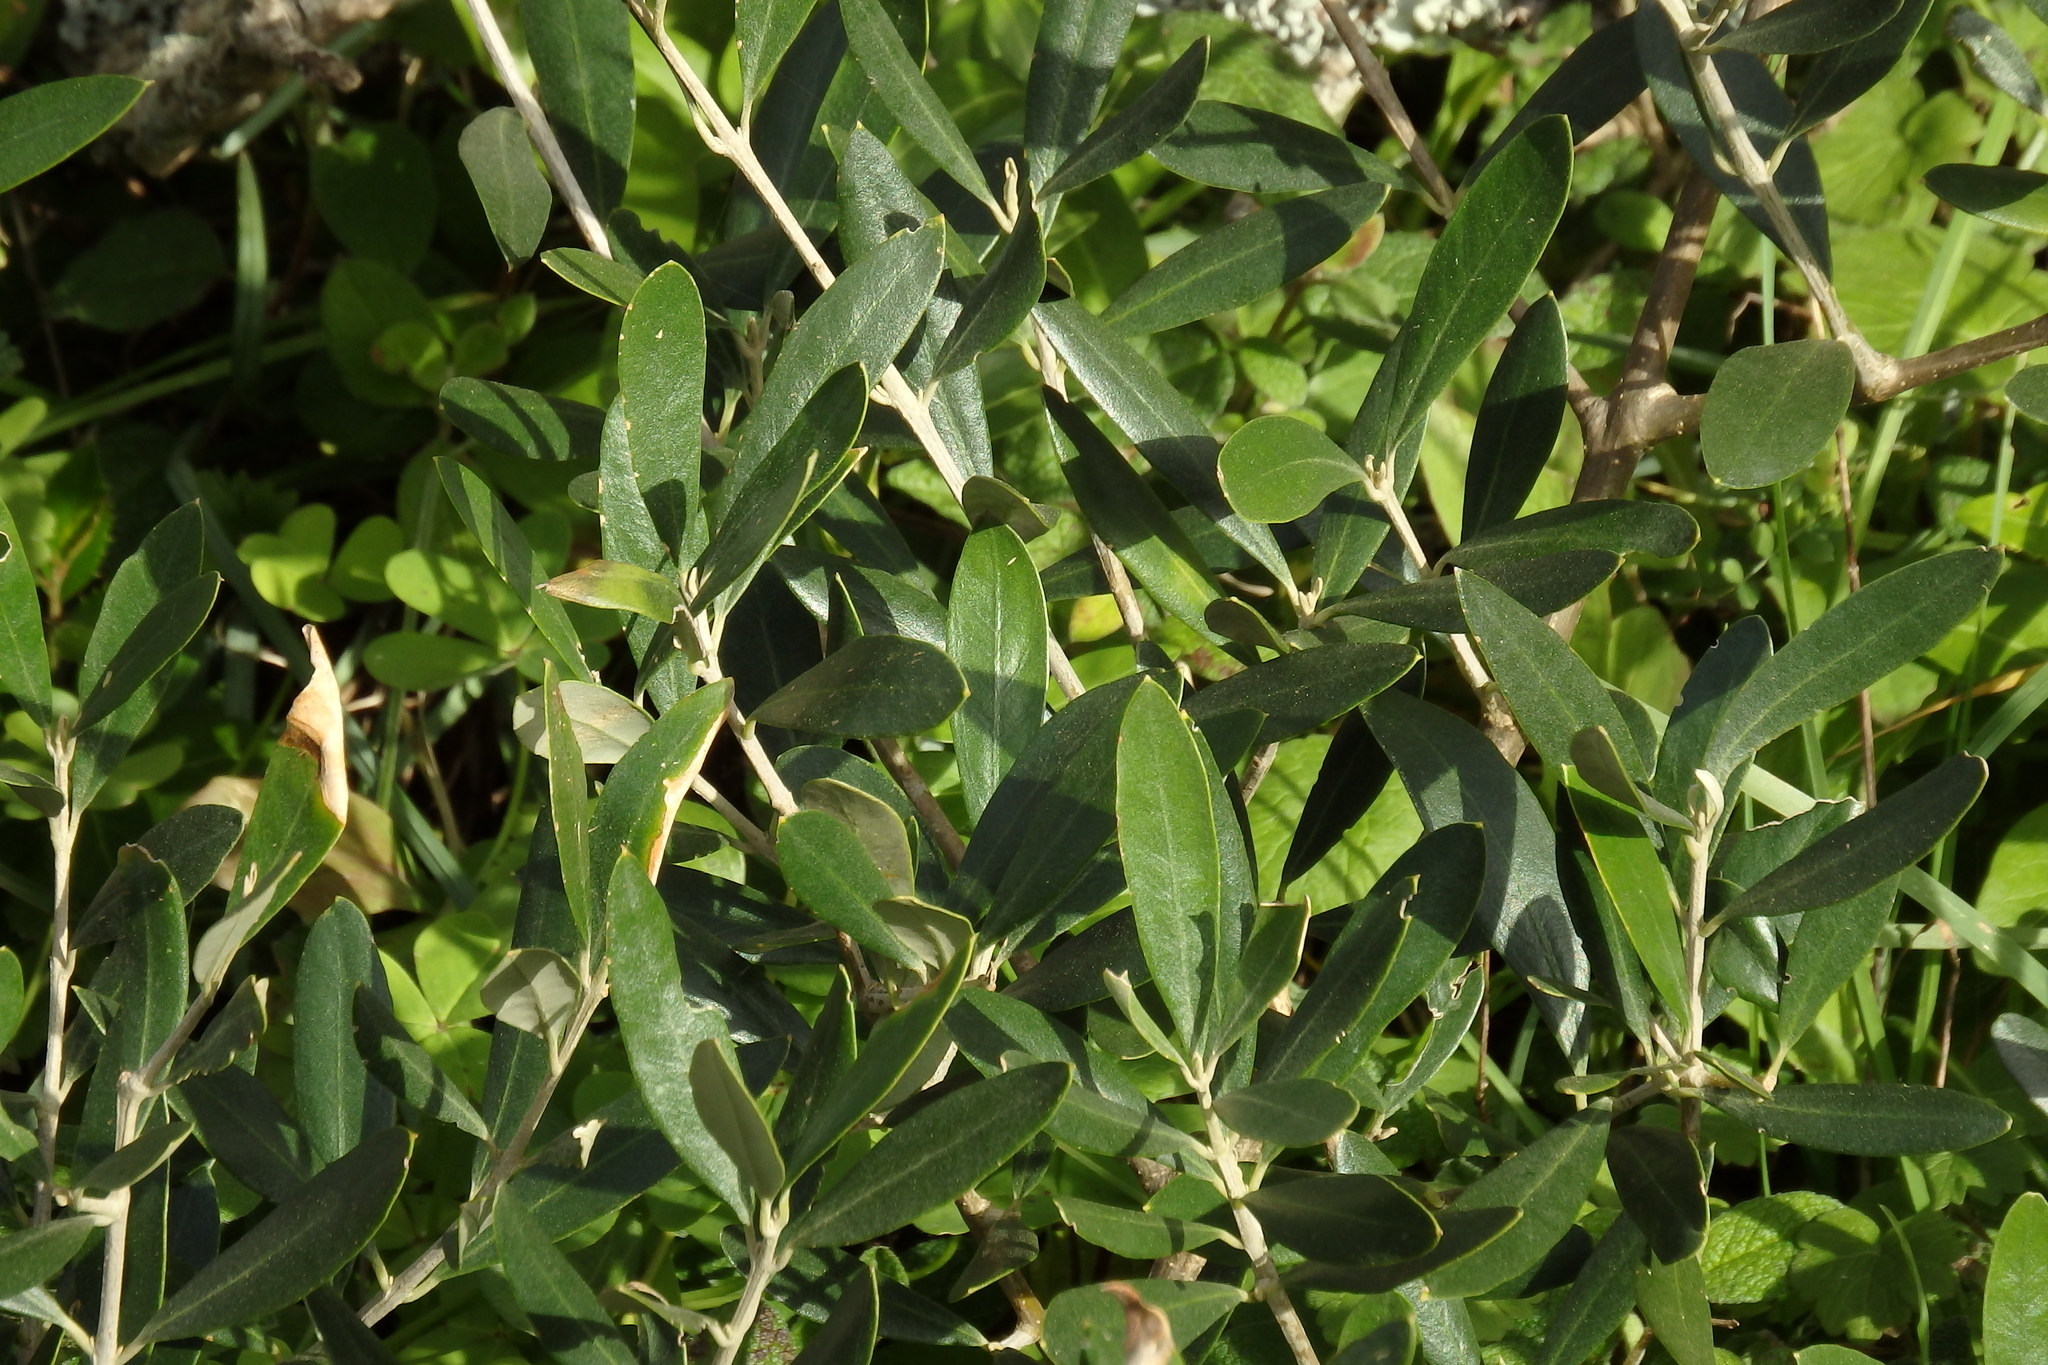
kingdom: Plantae
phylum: Tracheophyta
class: Magnoliopsida
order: Lamiales
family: Oleaceae
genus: Olea
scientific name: Olea europaea
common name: Olive
